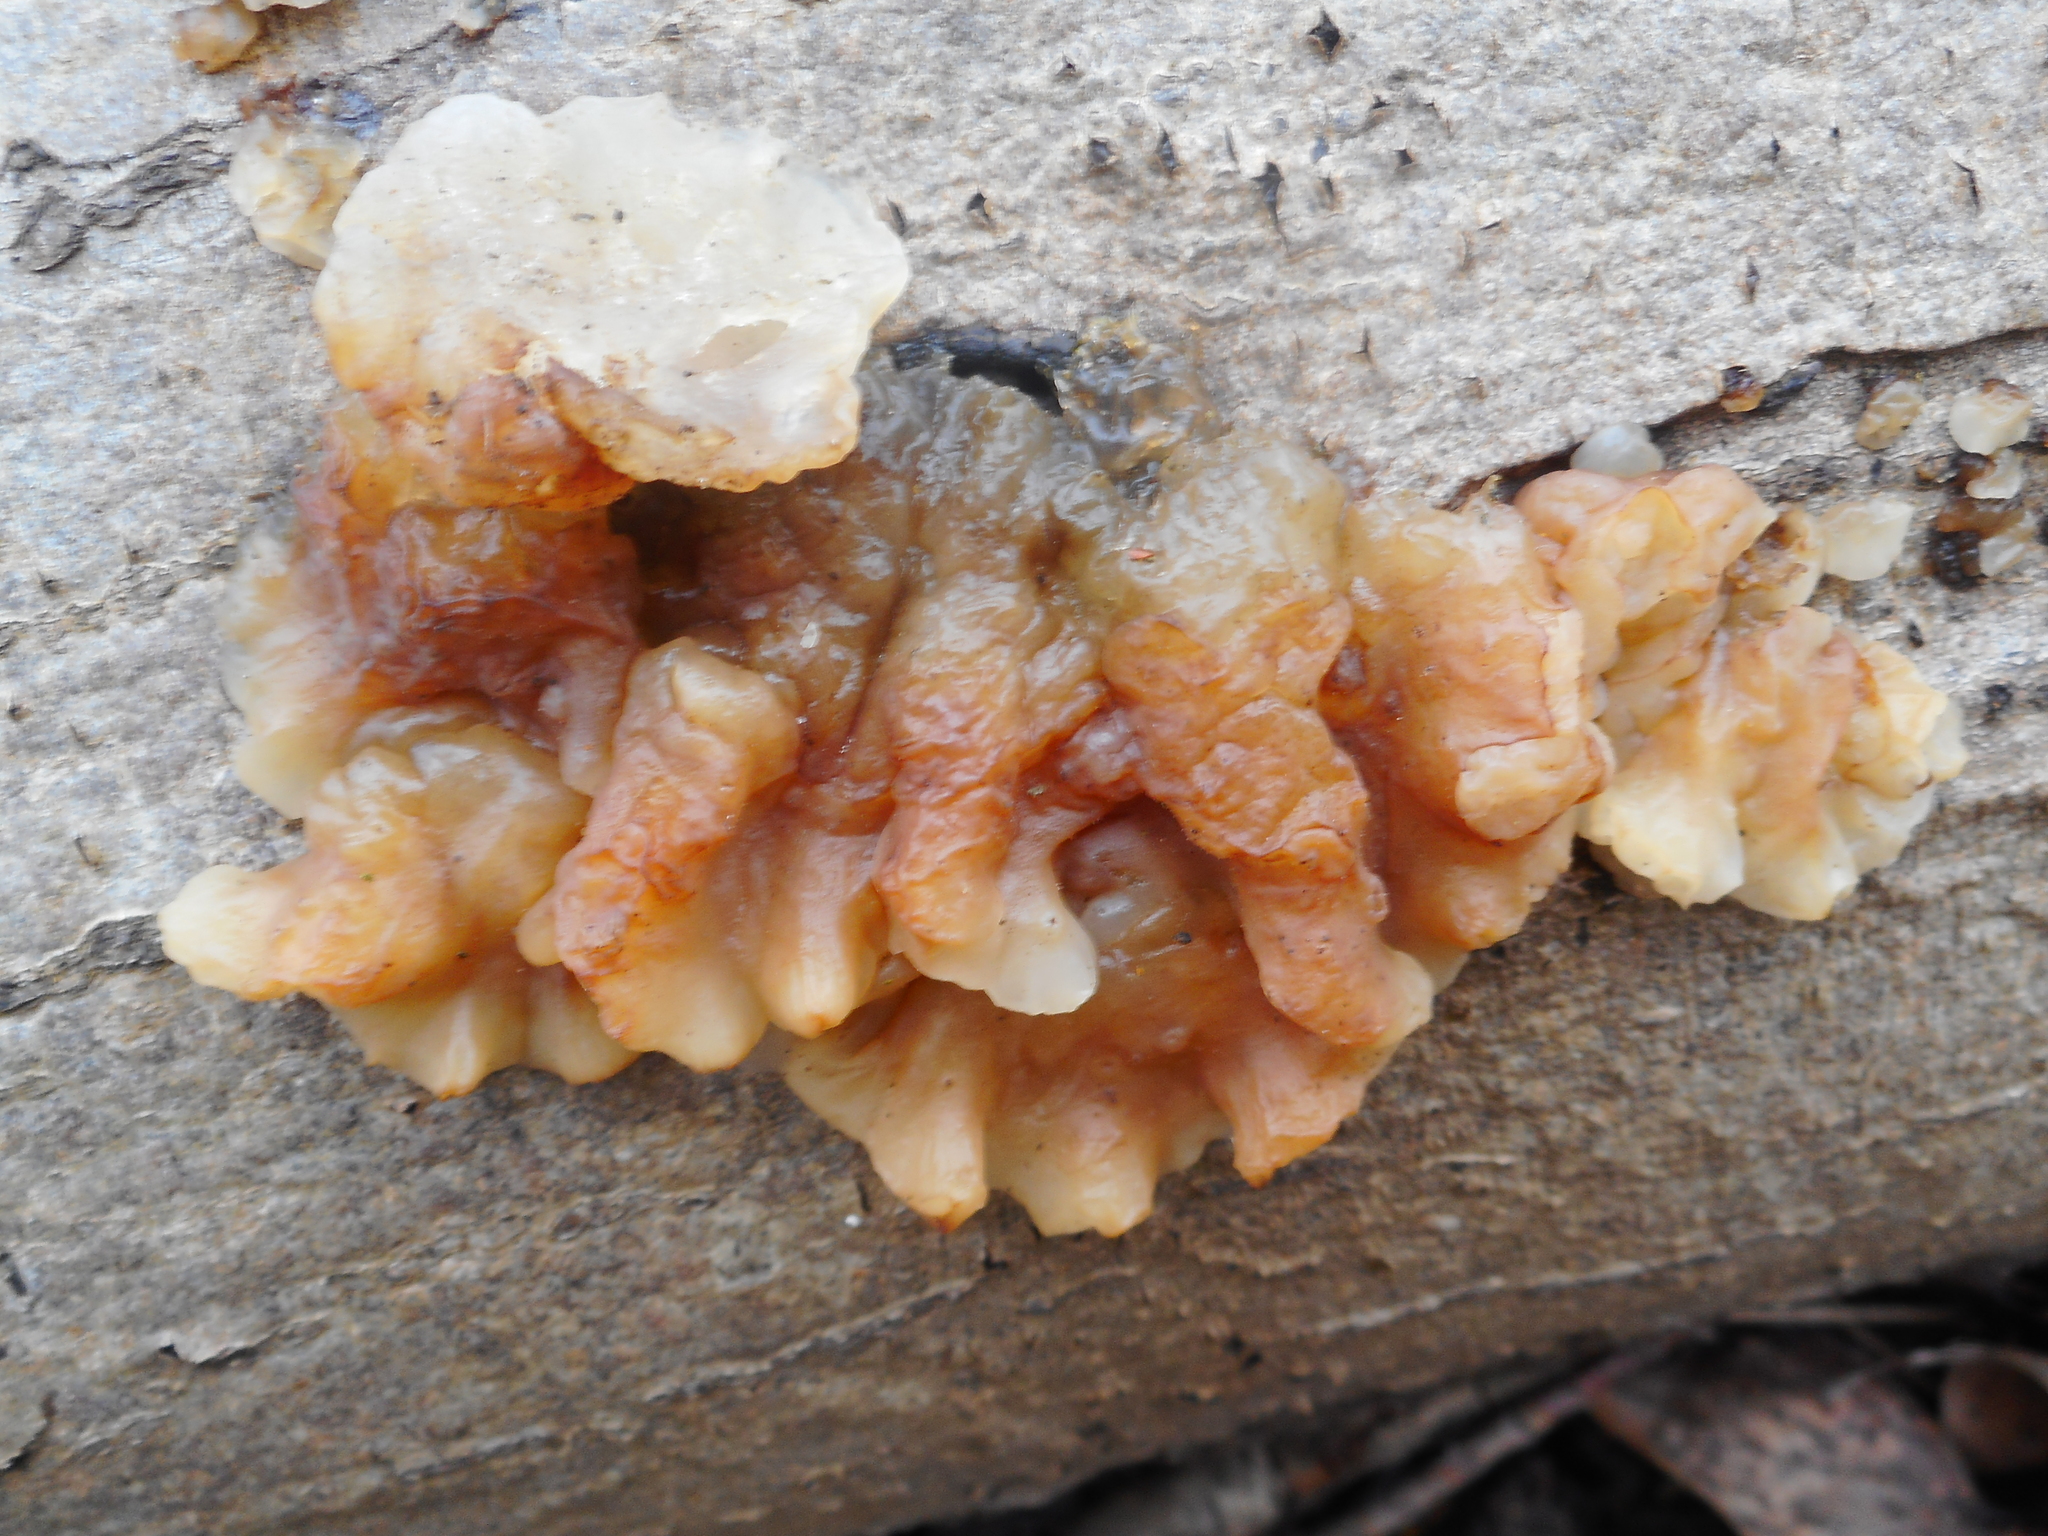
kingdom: Fungi
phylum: Basidiomycota
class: Agaricomycetes
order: Auriculariales
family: Auriculariaceae
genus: Exidia
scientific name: Exidia cartilaginea
